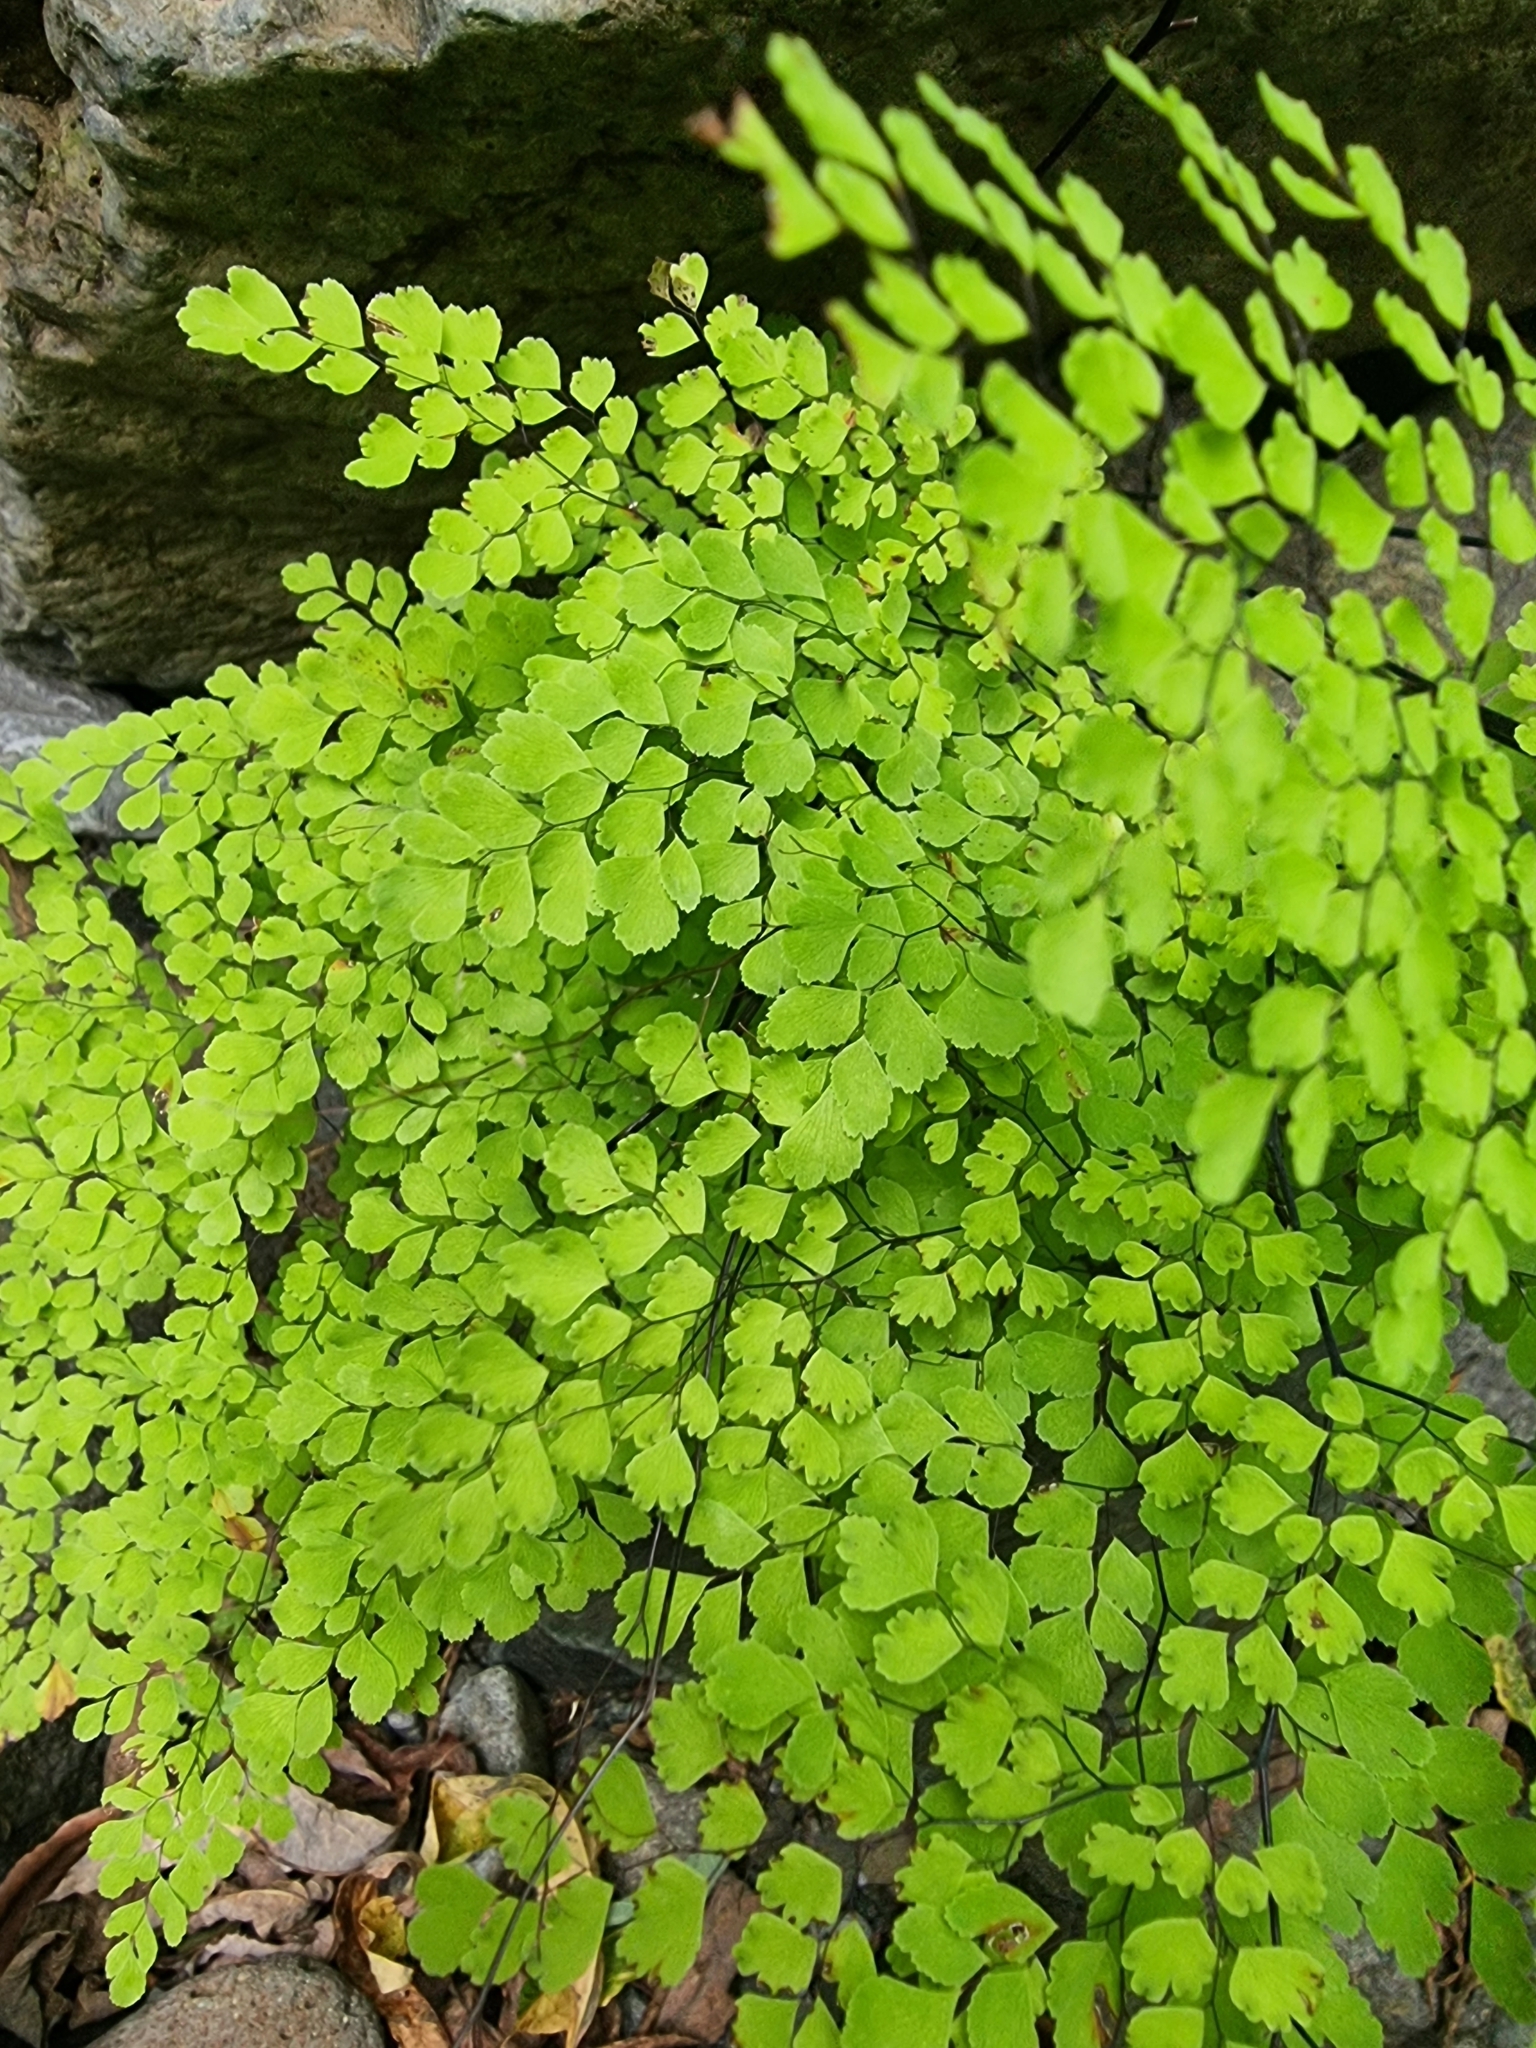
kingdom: Plantae
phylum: Tracheophyta
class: Polypodiopsida
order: Polypodiales
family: Pteridaceae
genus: Adiantum
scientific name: Adiantum raddianum
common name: Delta maidenhair fern
